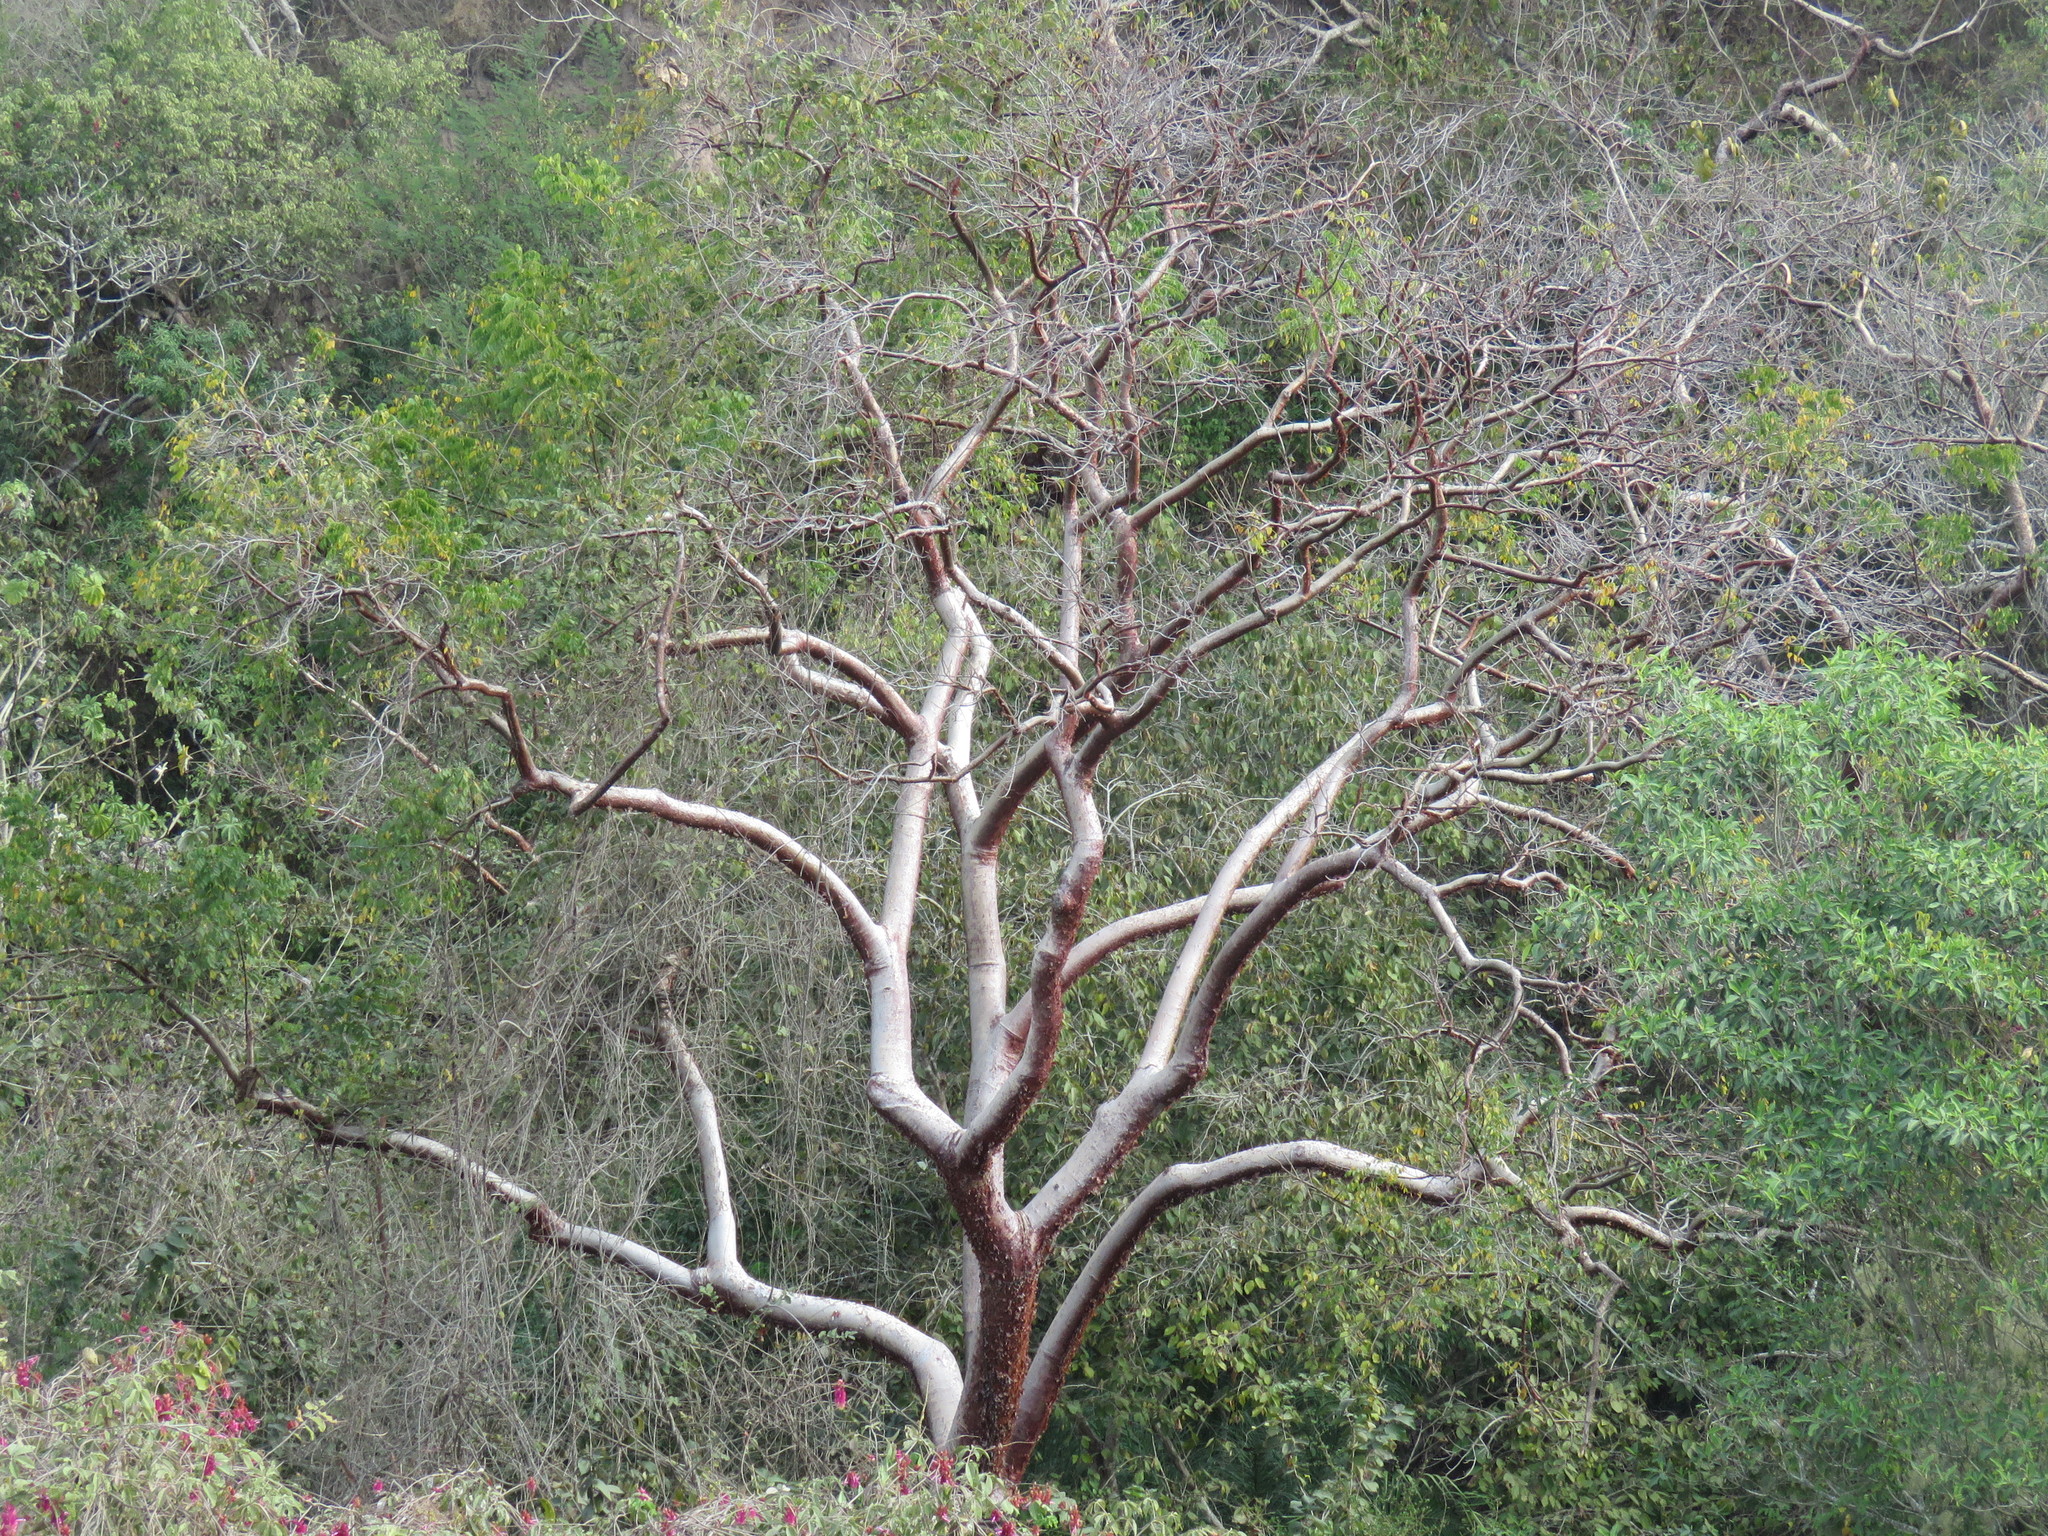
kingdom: Plantae
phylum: Tracheophyta
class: Magnoliopsida
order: Sapindales
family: Burseraceae
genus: Bursera
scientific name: Bursera simaruba
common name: Turpentine tree
